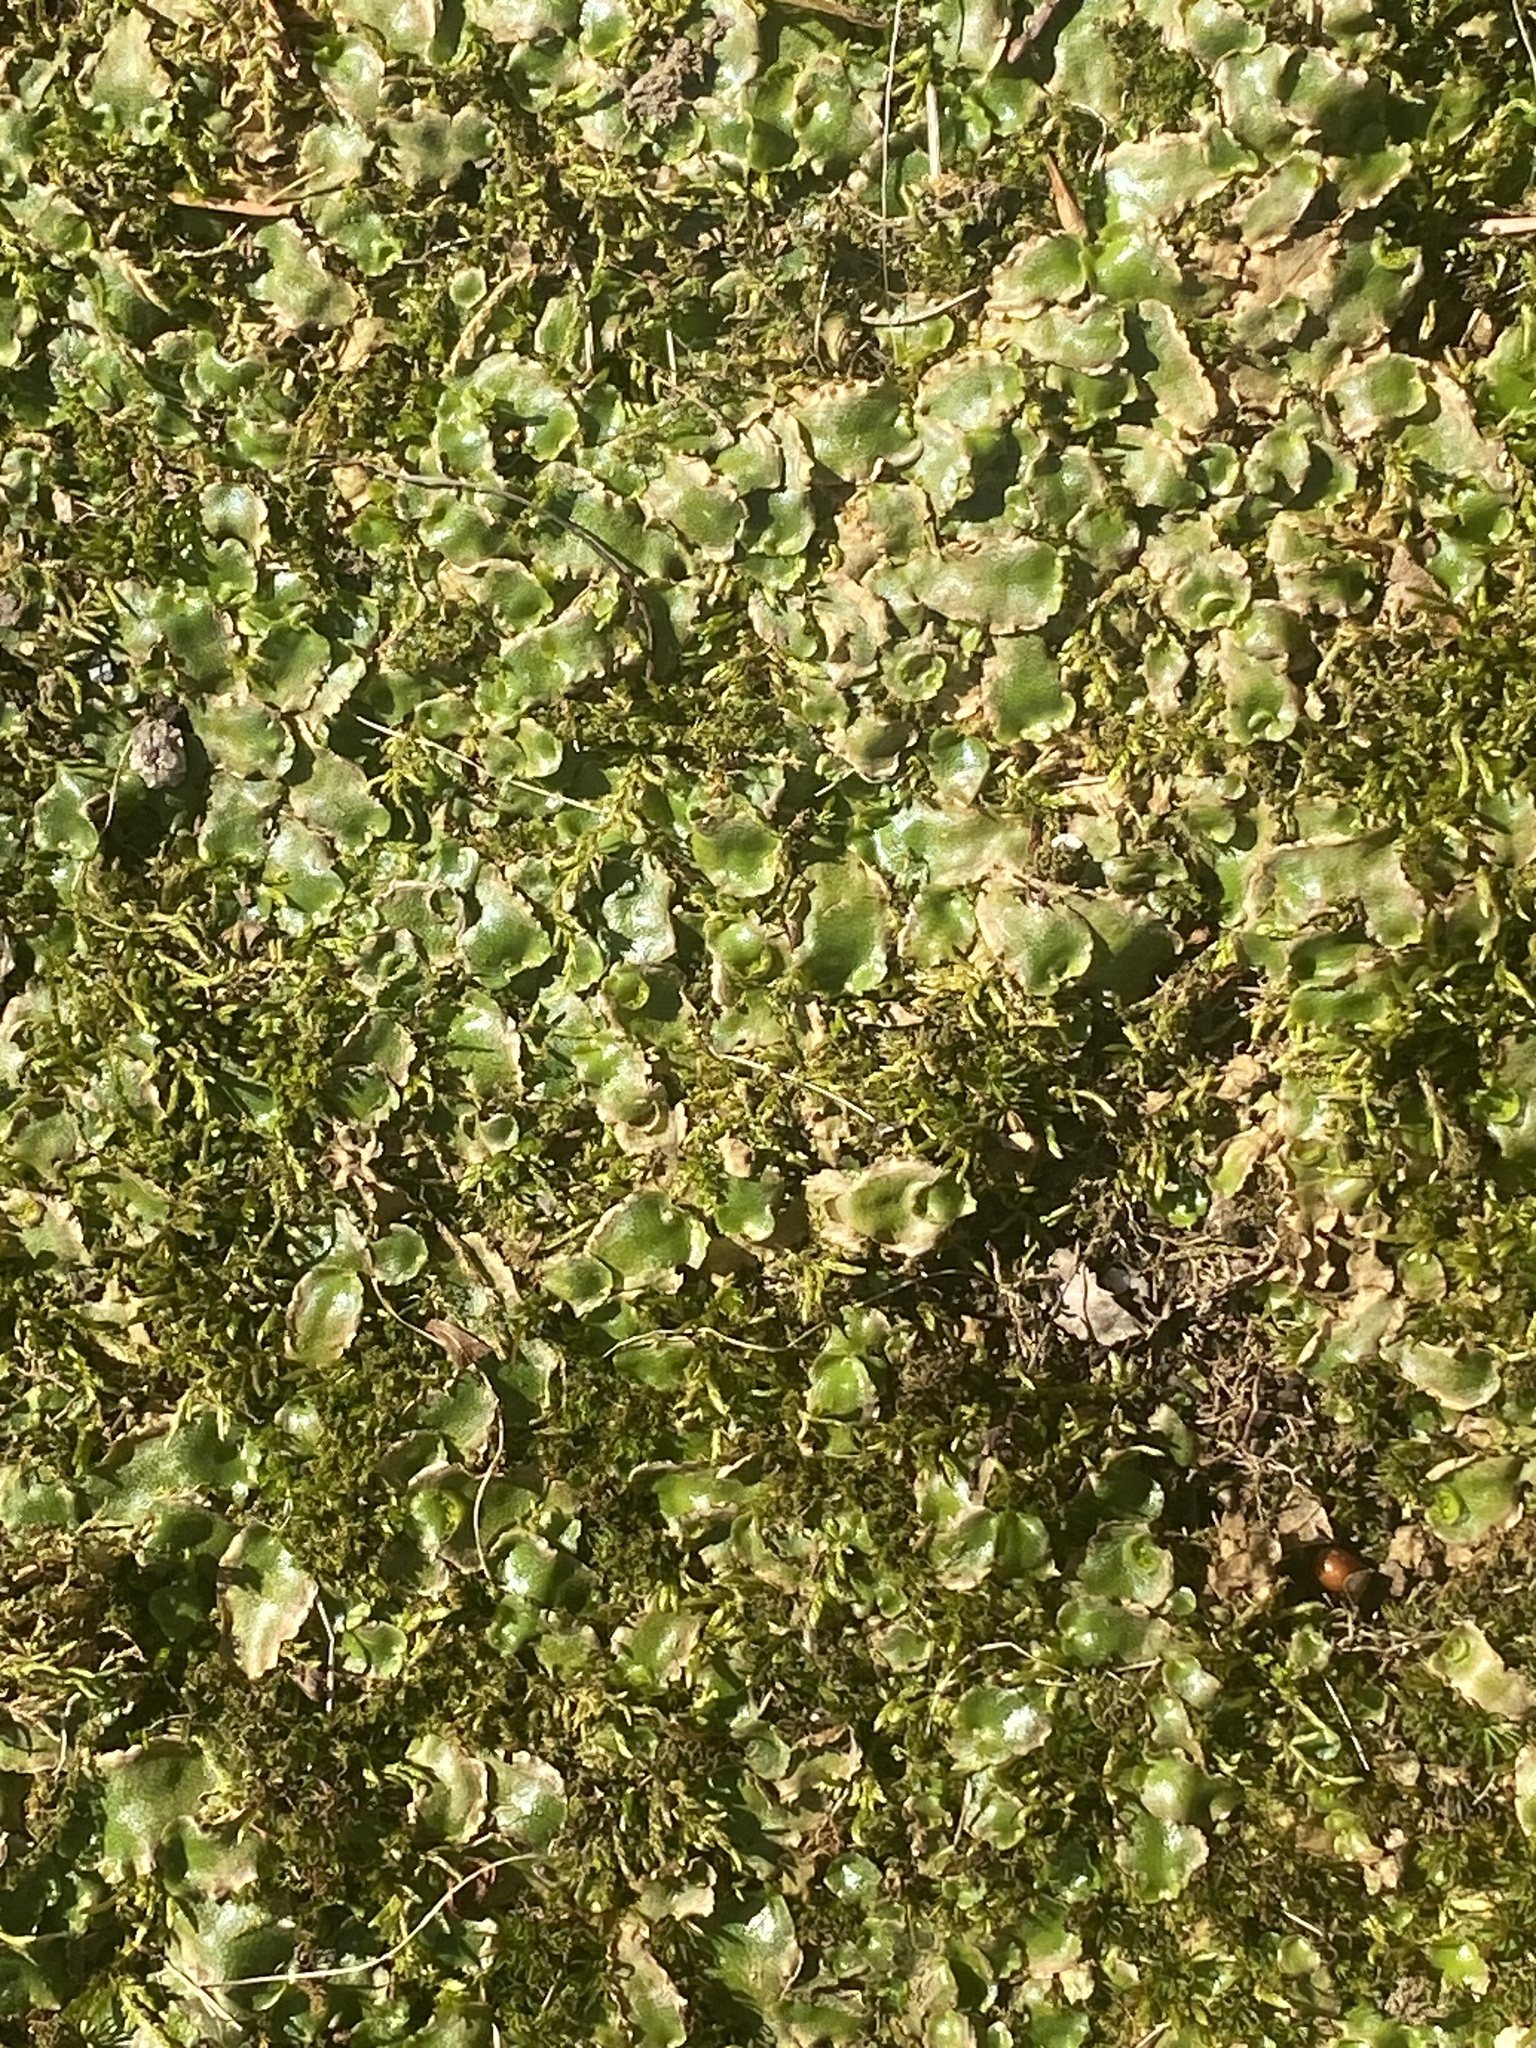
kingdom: Plantae
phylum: Marchantiophyta
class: Marchantiopsida
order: Lunulariales
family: Lunulariaceae
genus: Lunularia
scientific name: Lunularia cruciata
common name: Crescent-cup liverwort
